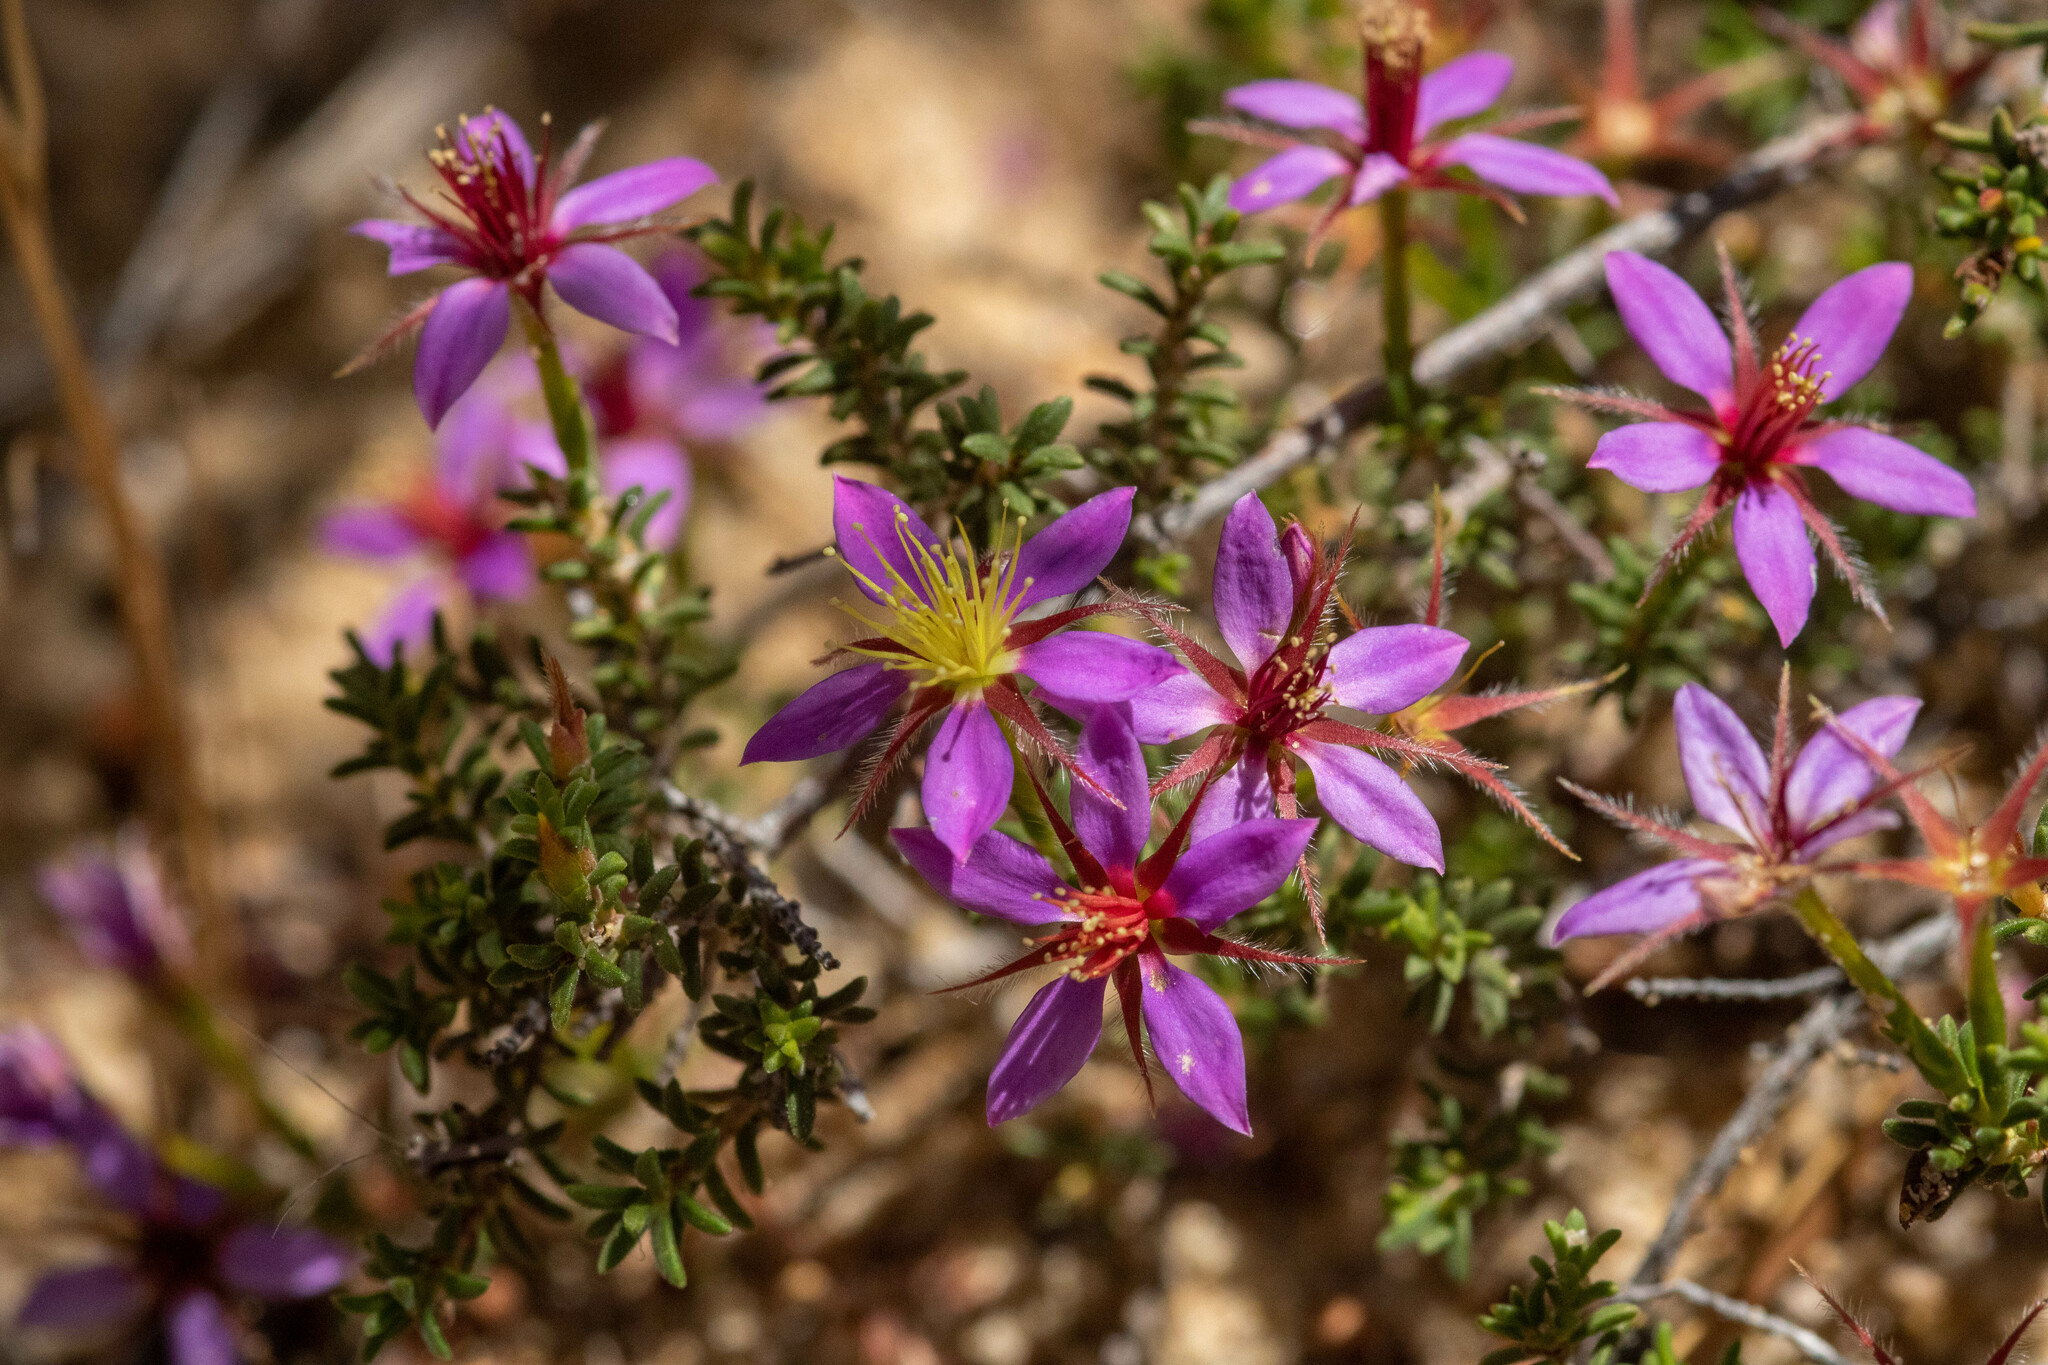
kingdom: Plantae
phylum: Tracheophyta
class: Magnoliopsida
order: Myrtales
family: Myrtaceae
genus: Calytrix
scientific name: Calytrix strigosa
